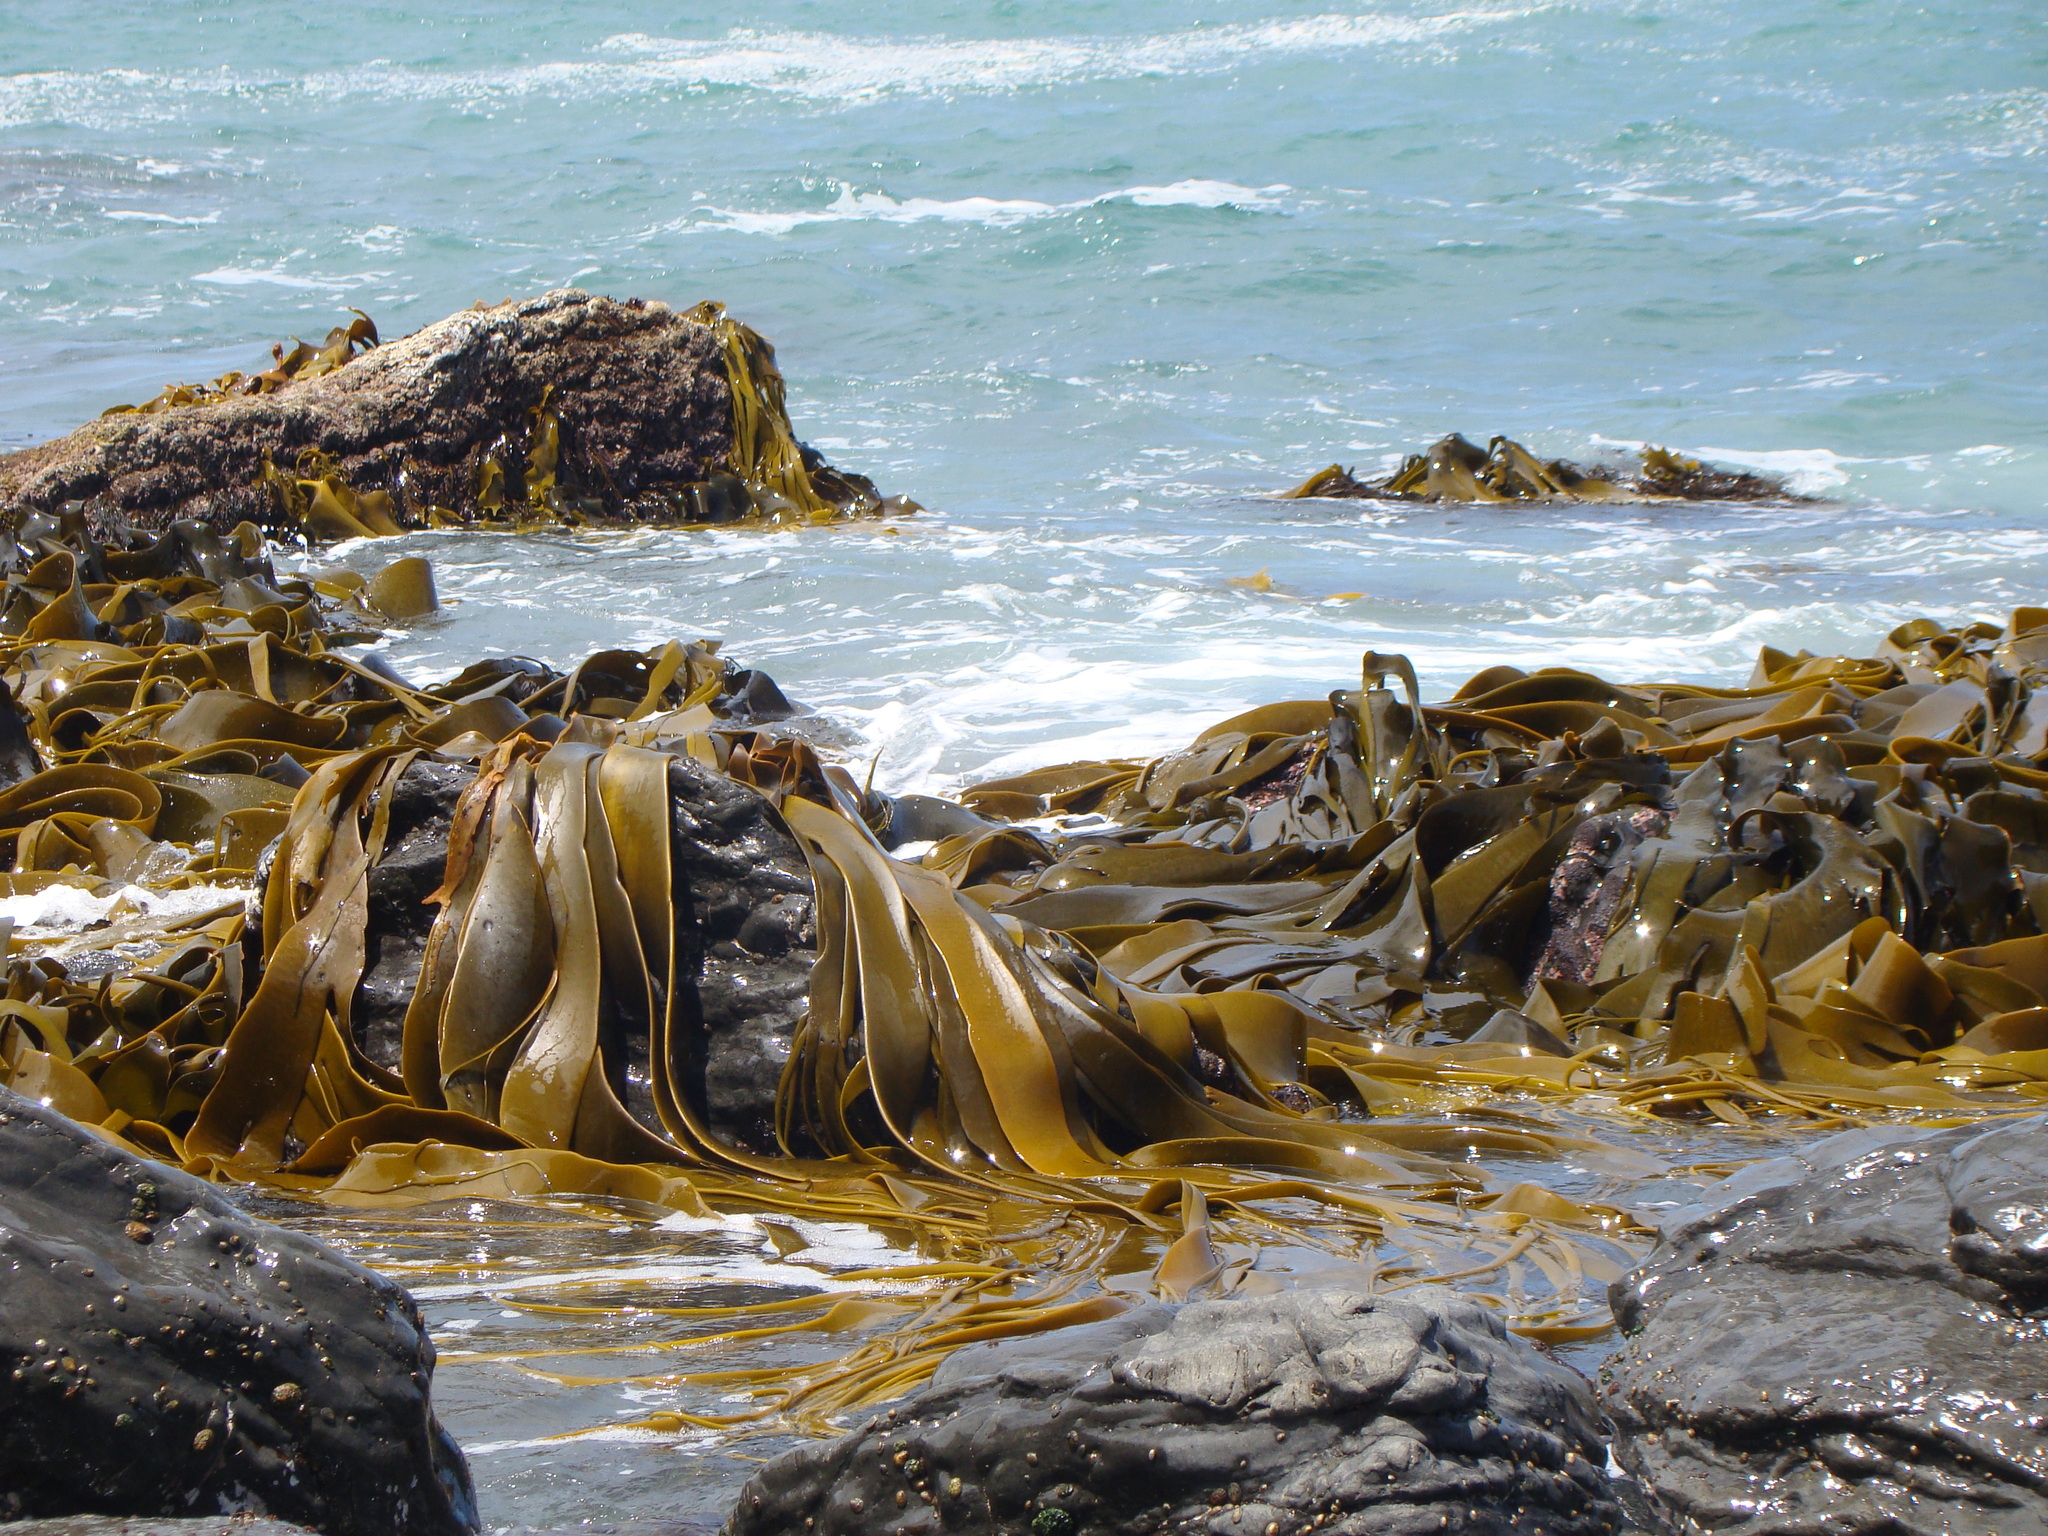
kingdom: Chromista
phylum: Ochrophyta
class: Phaeophyceae
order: Fucales
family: Durvillaeaceae
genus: Durvillaea
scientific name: Durvillaea antarctica
